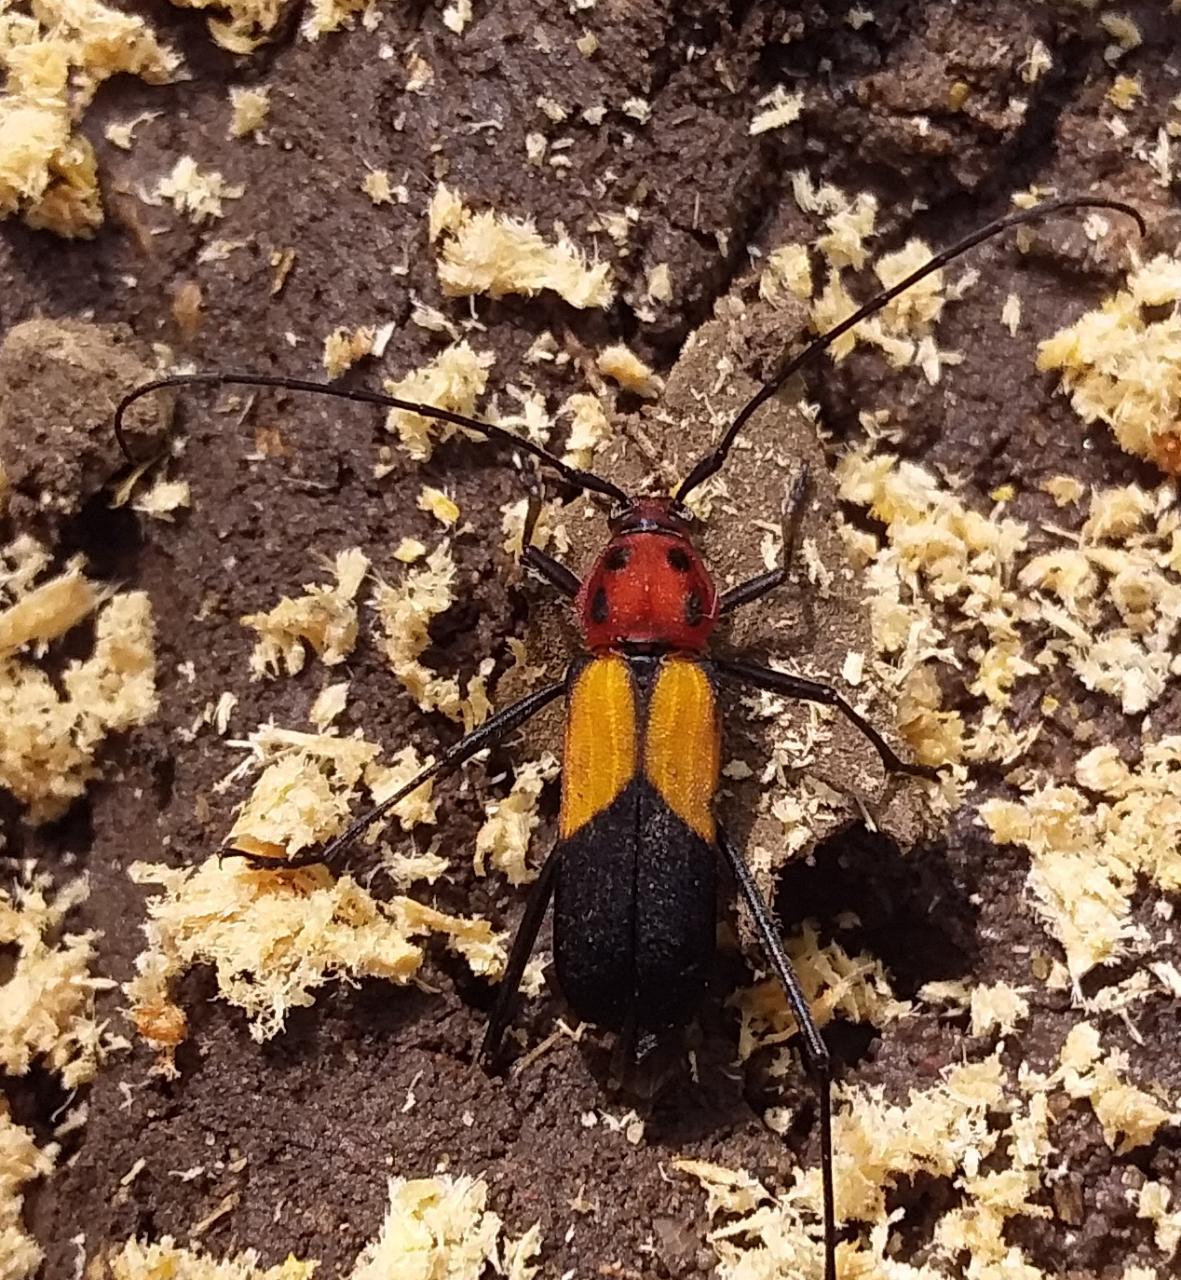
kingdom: Animalia
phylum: Arthropoda
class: Insecta
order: Coleoptera
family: Cerambycidae
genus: Metaleptus
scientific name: Metaleptus pyrrhulus
